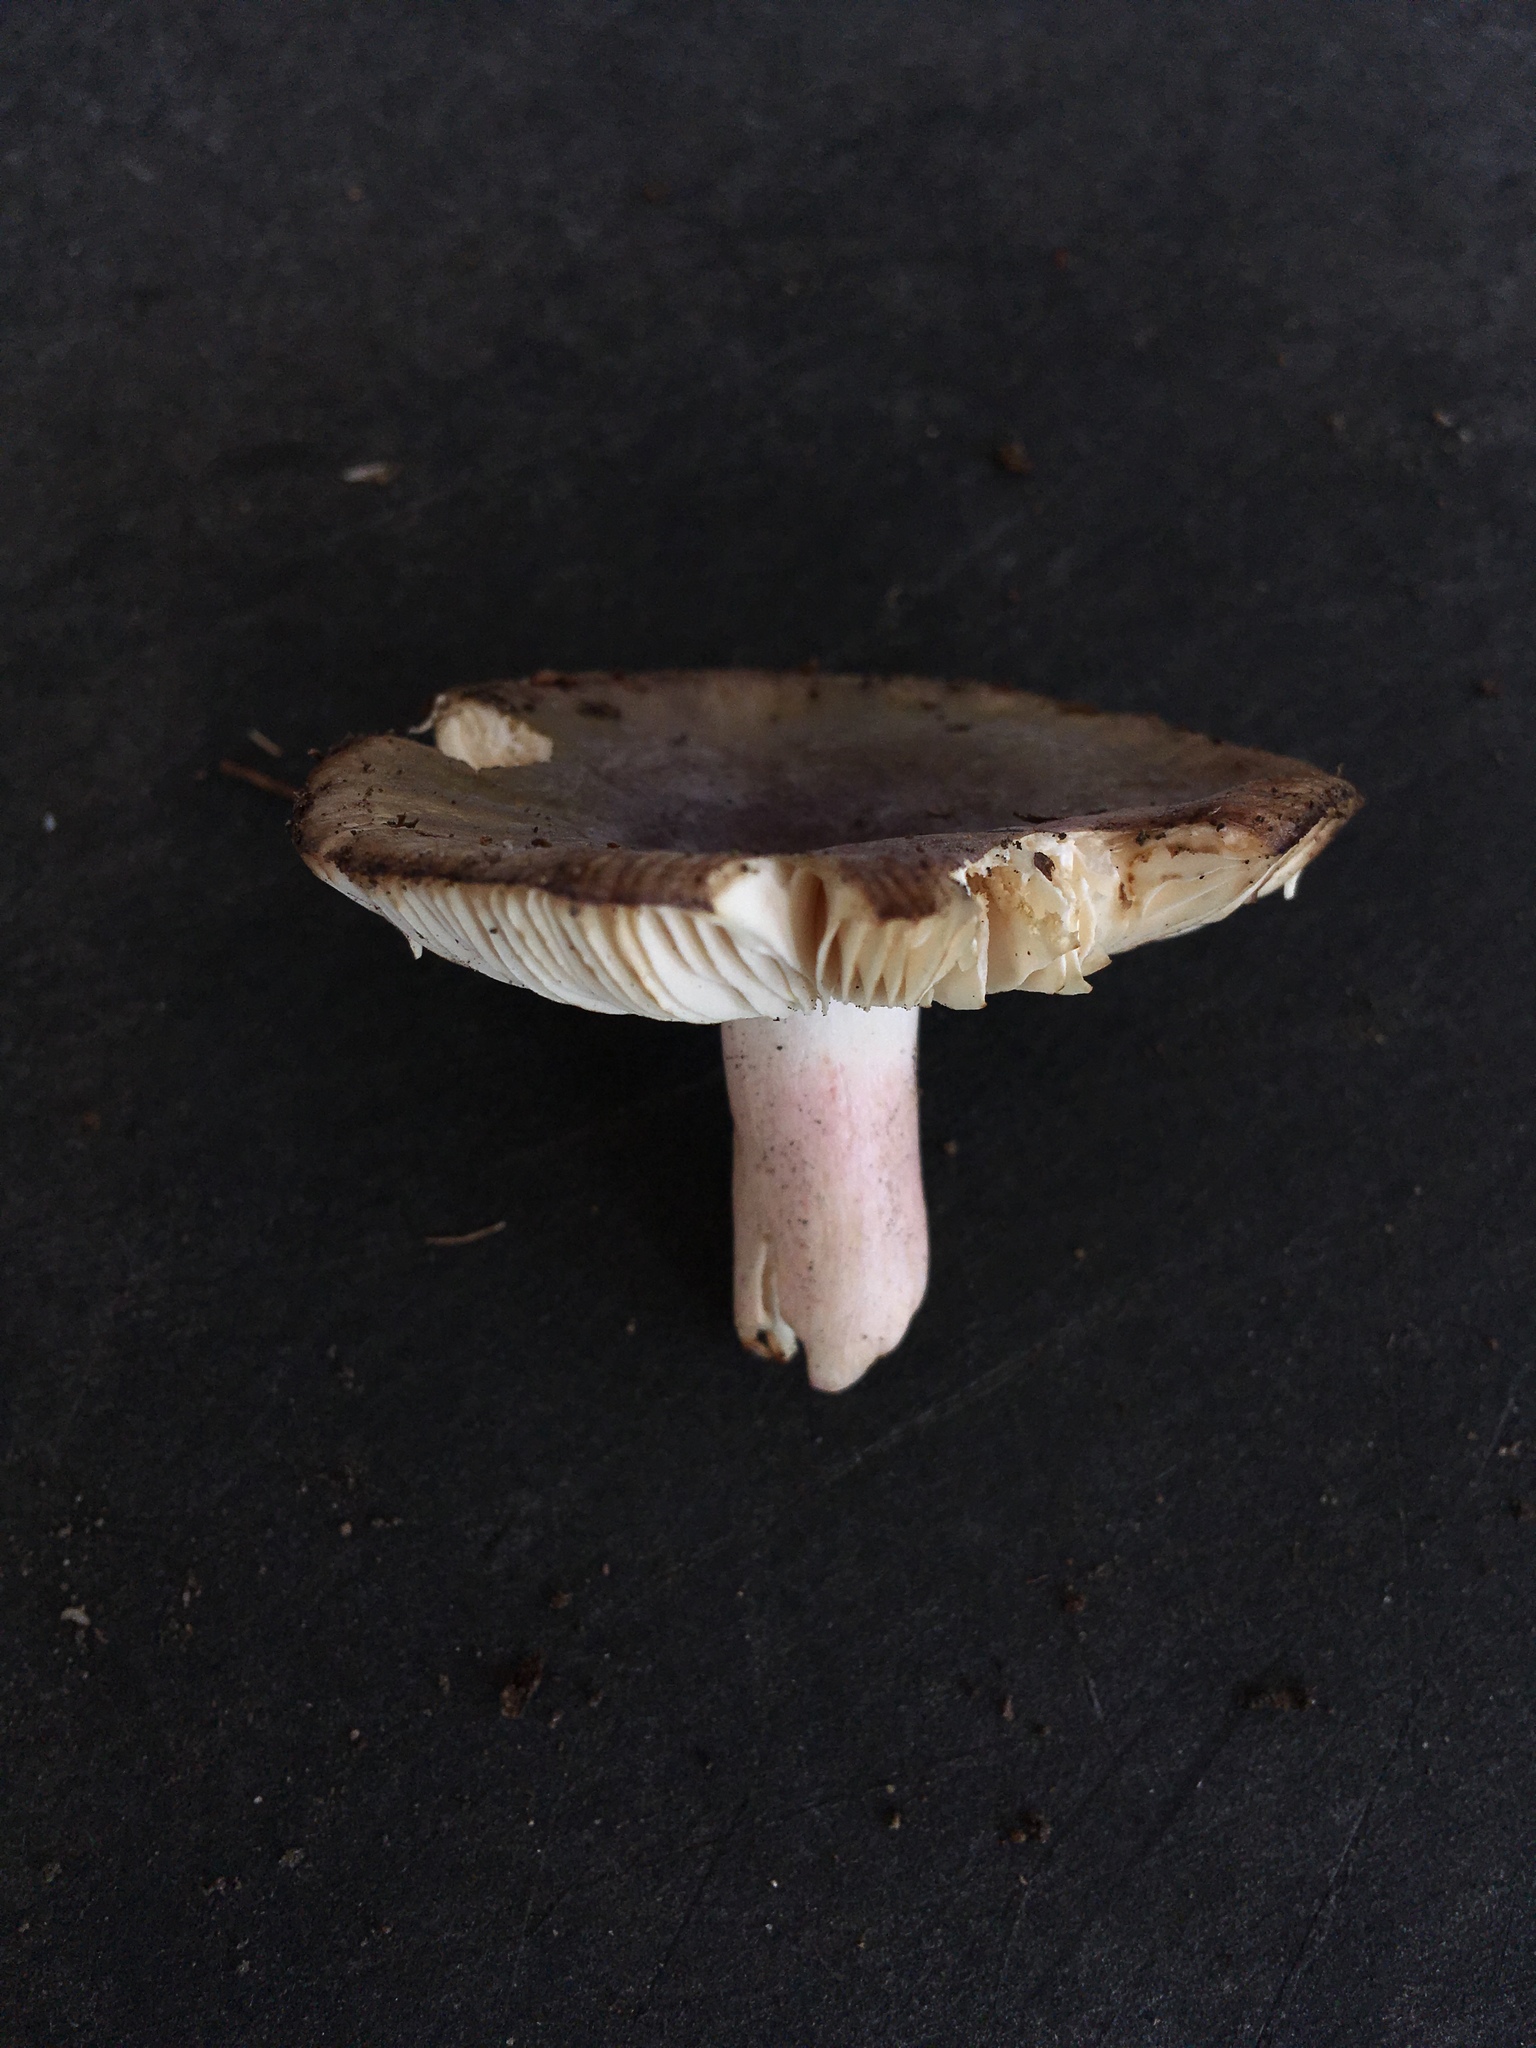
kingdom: Fungi
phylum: Basidiomycota
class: Agaricomycetes
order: Russulales
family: Russulaceae
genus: Russula
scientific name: Russula olivacea
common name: Olive brittlegill
